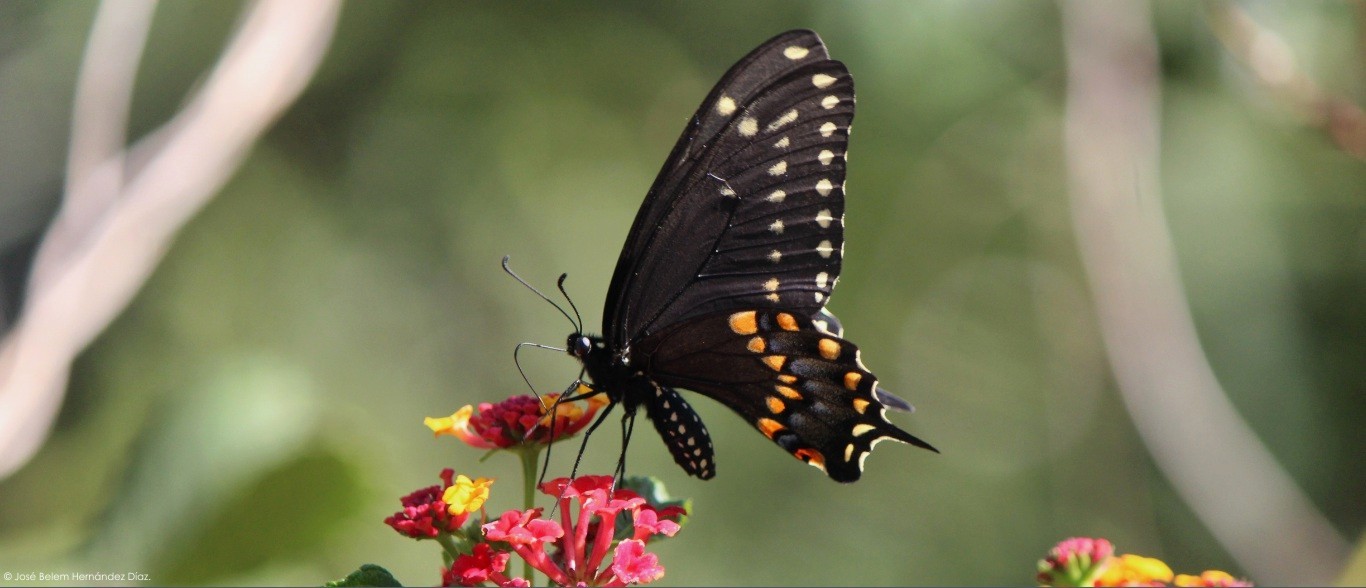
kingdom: Animalia
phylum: Arthropoda
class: Insecta
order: Lepidoptera
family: Papilionidae
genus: Papilio
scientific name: Papilio polyxenes
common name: Black swallowtail
